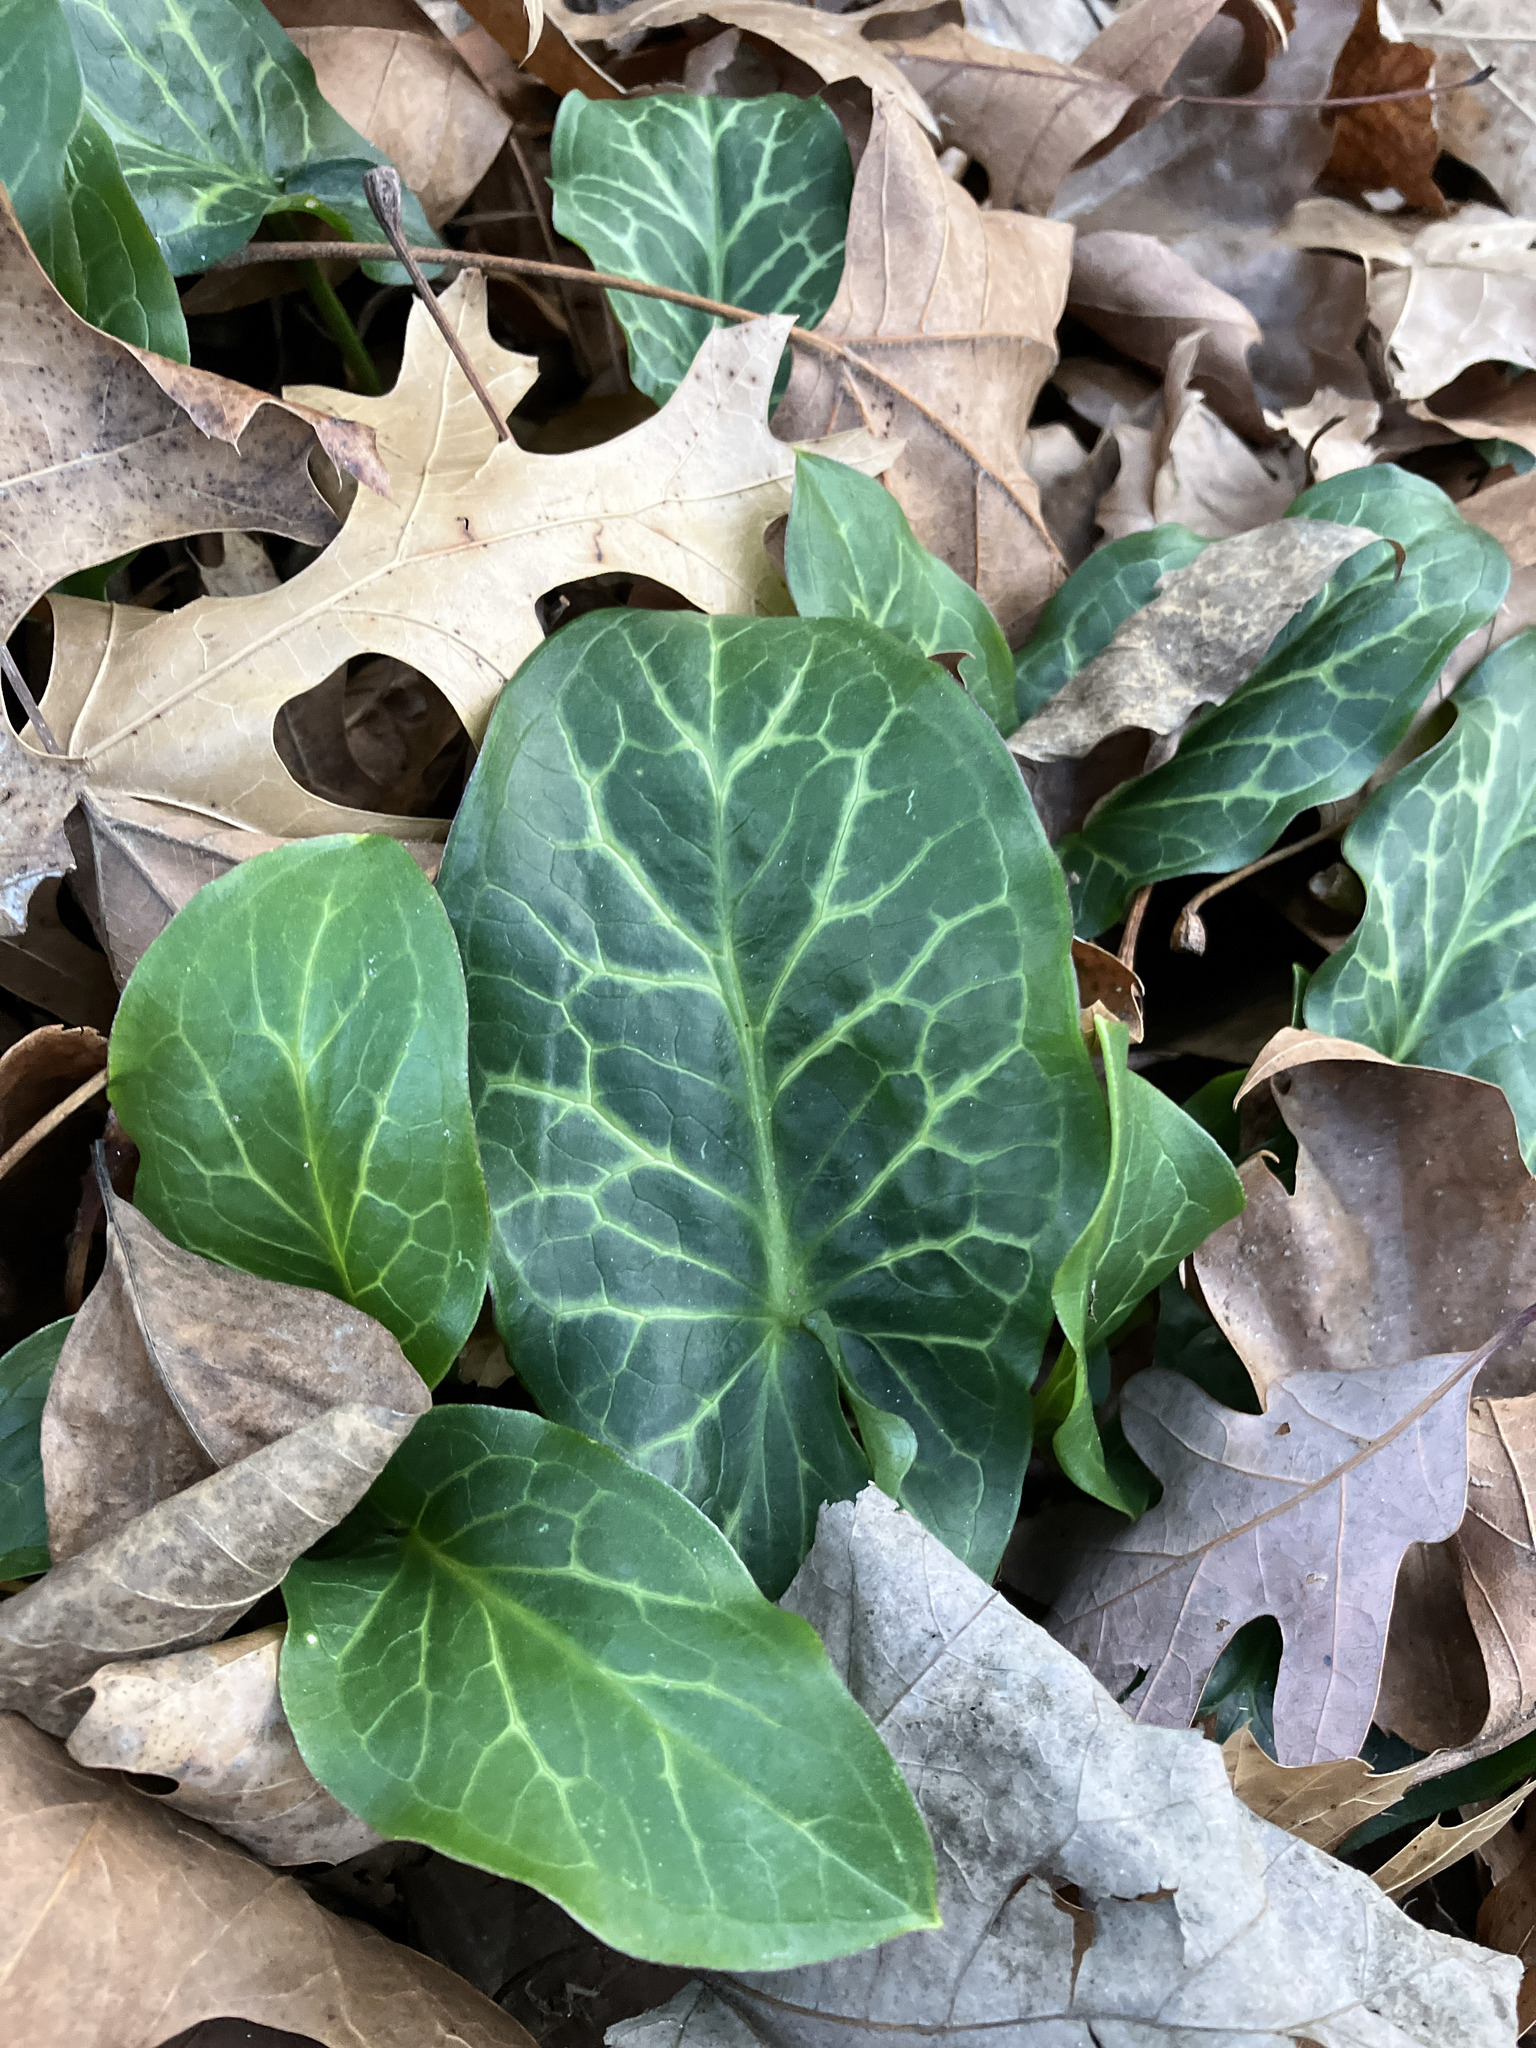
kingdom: Plantae
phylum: Tracheophyta
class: Liliopsida
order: Alismatales
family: Araceae
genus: Arum
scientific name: Arum italicum
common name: Italian lords-and-ladies
